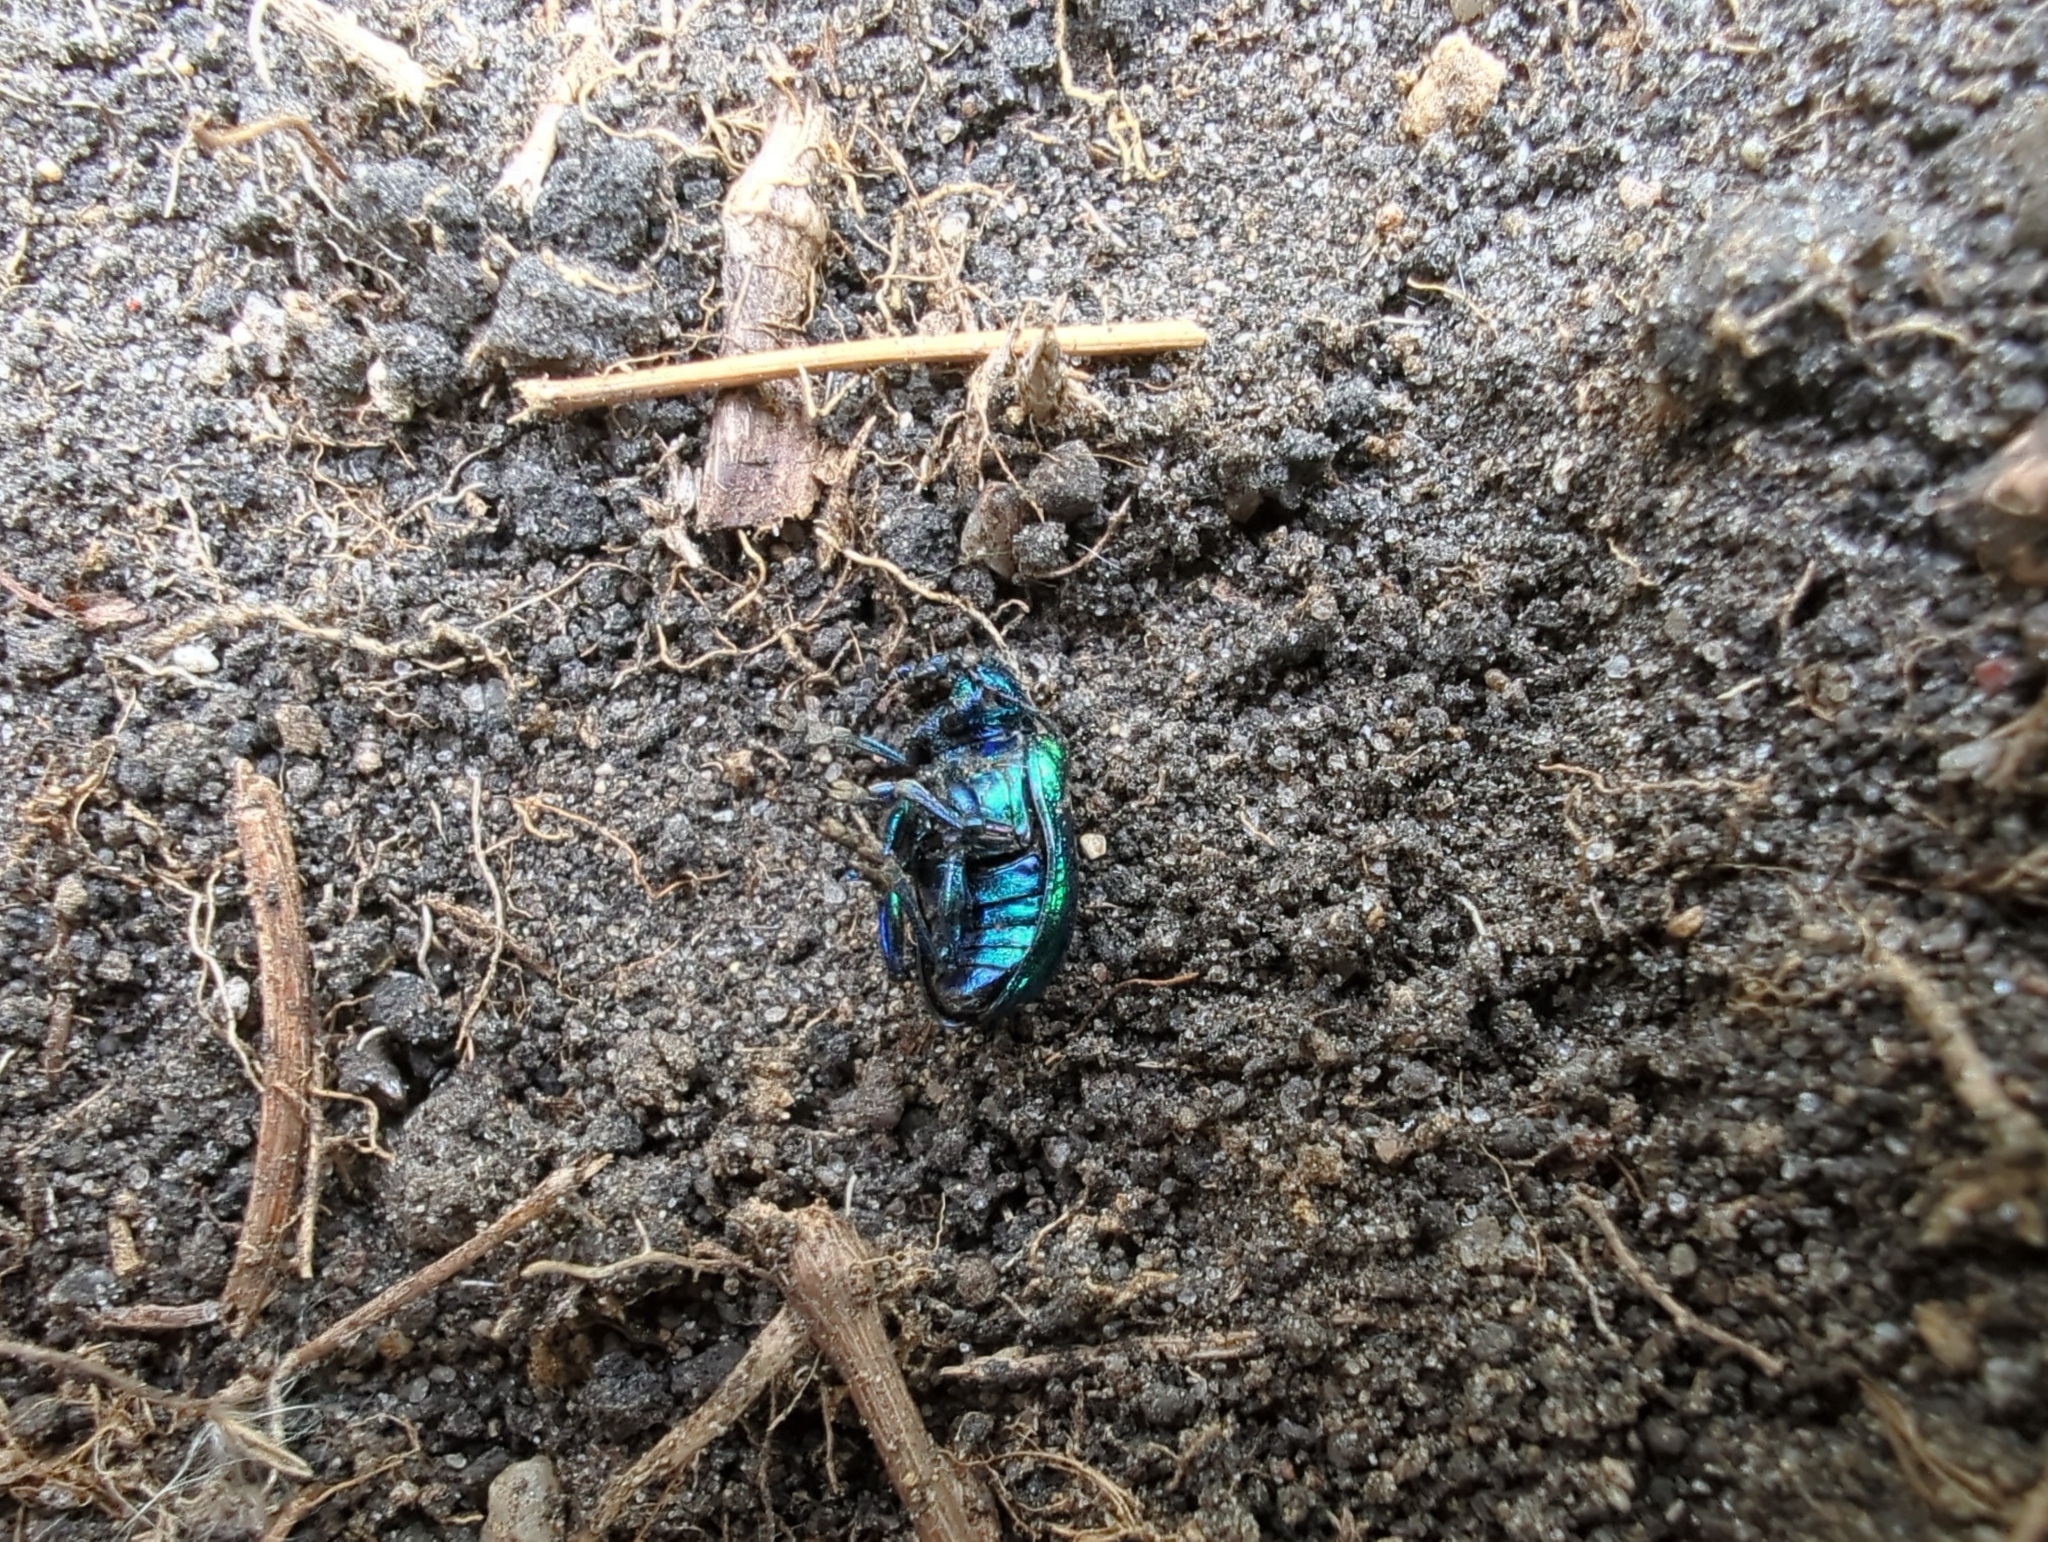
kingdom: Animalia
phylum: Arthropoda
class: Insecta
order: Coleoptera
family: Chrysomelidae
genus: Chrysochus
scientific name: Chrysochus auratus
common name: Dogbane leaf beetle
